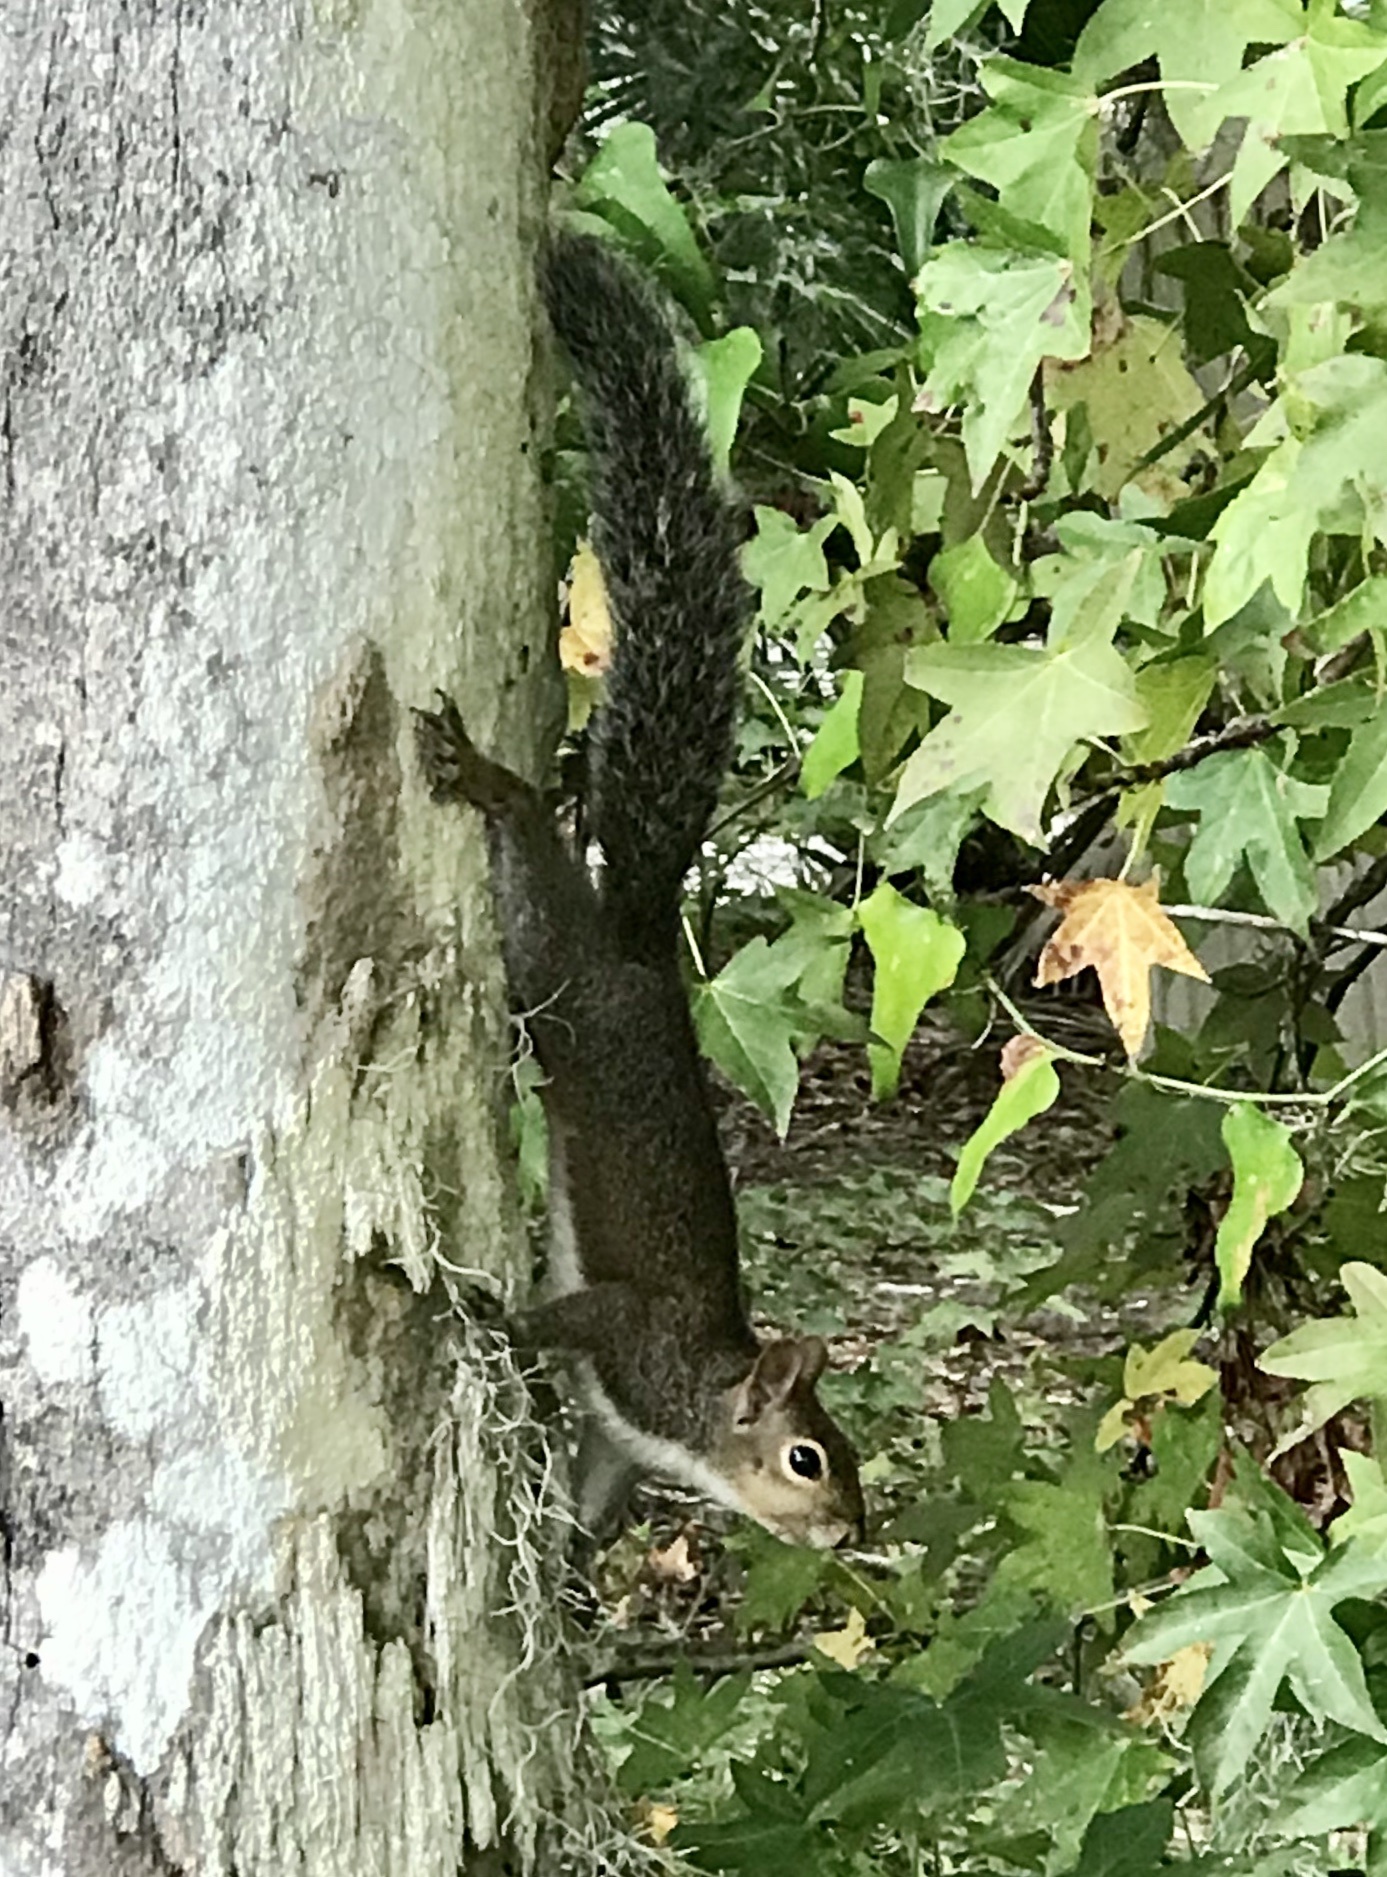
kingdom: Animalia
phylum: Chordata
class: Mammalia
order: Rodentia
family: Sciuridae
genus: Sciurus
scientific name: Sciurus carolinensis
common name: Eastern gray squirrel
